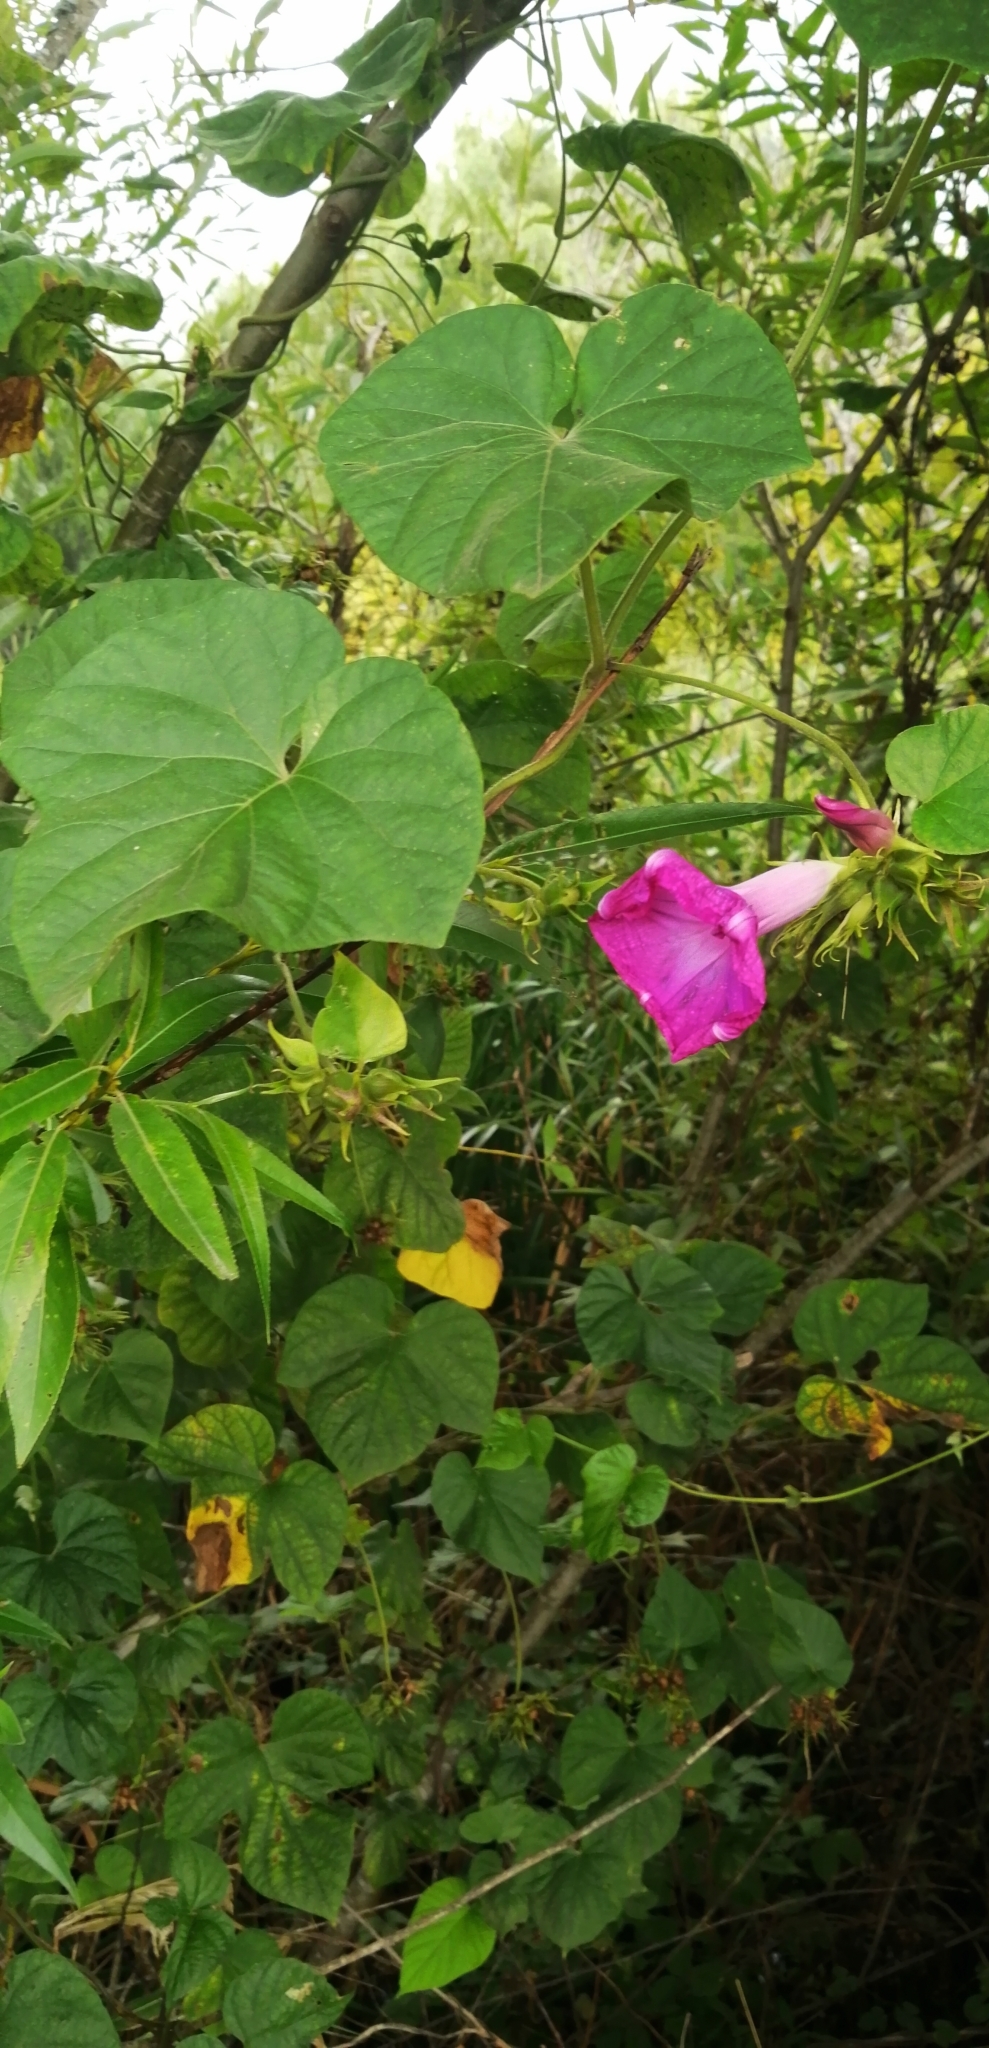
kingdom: Plantae
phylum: Tracheophyta
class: Magnoliopsida
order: Solanales
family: Convolvulaceae
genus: Ipomoea
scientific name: Ipomoea indica
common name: Blue dawnflower
